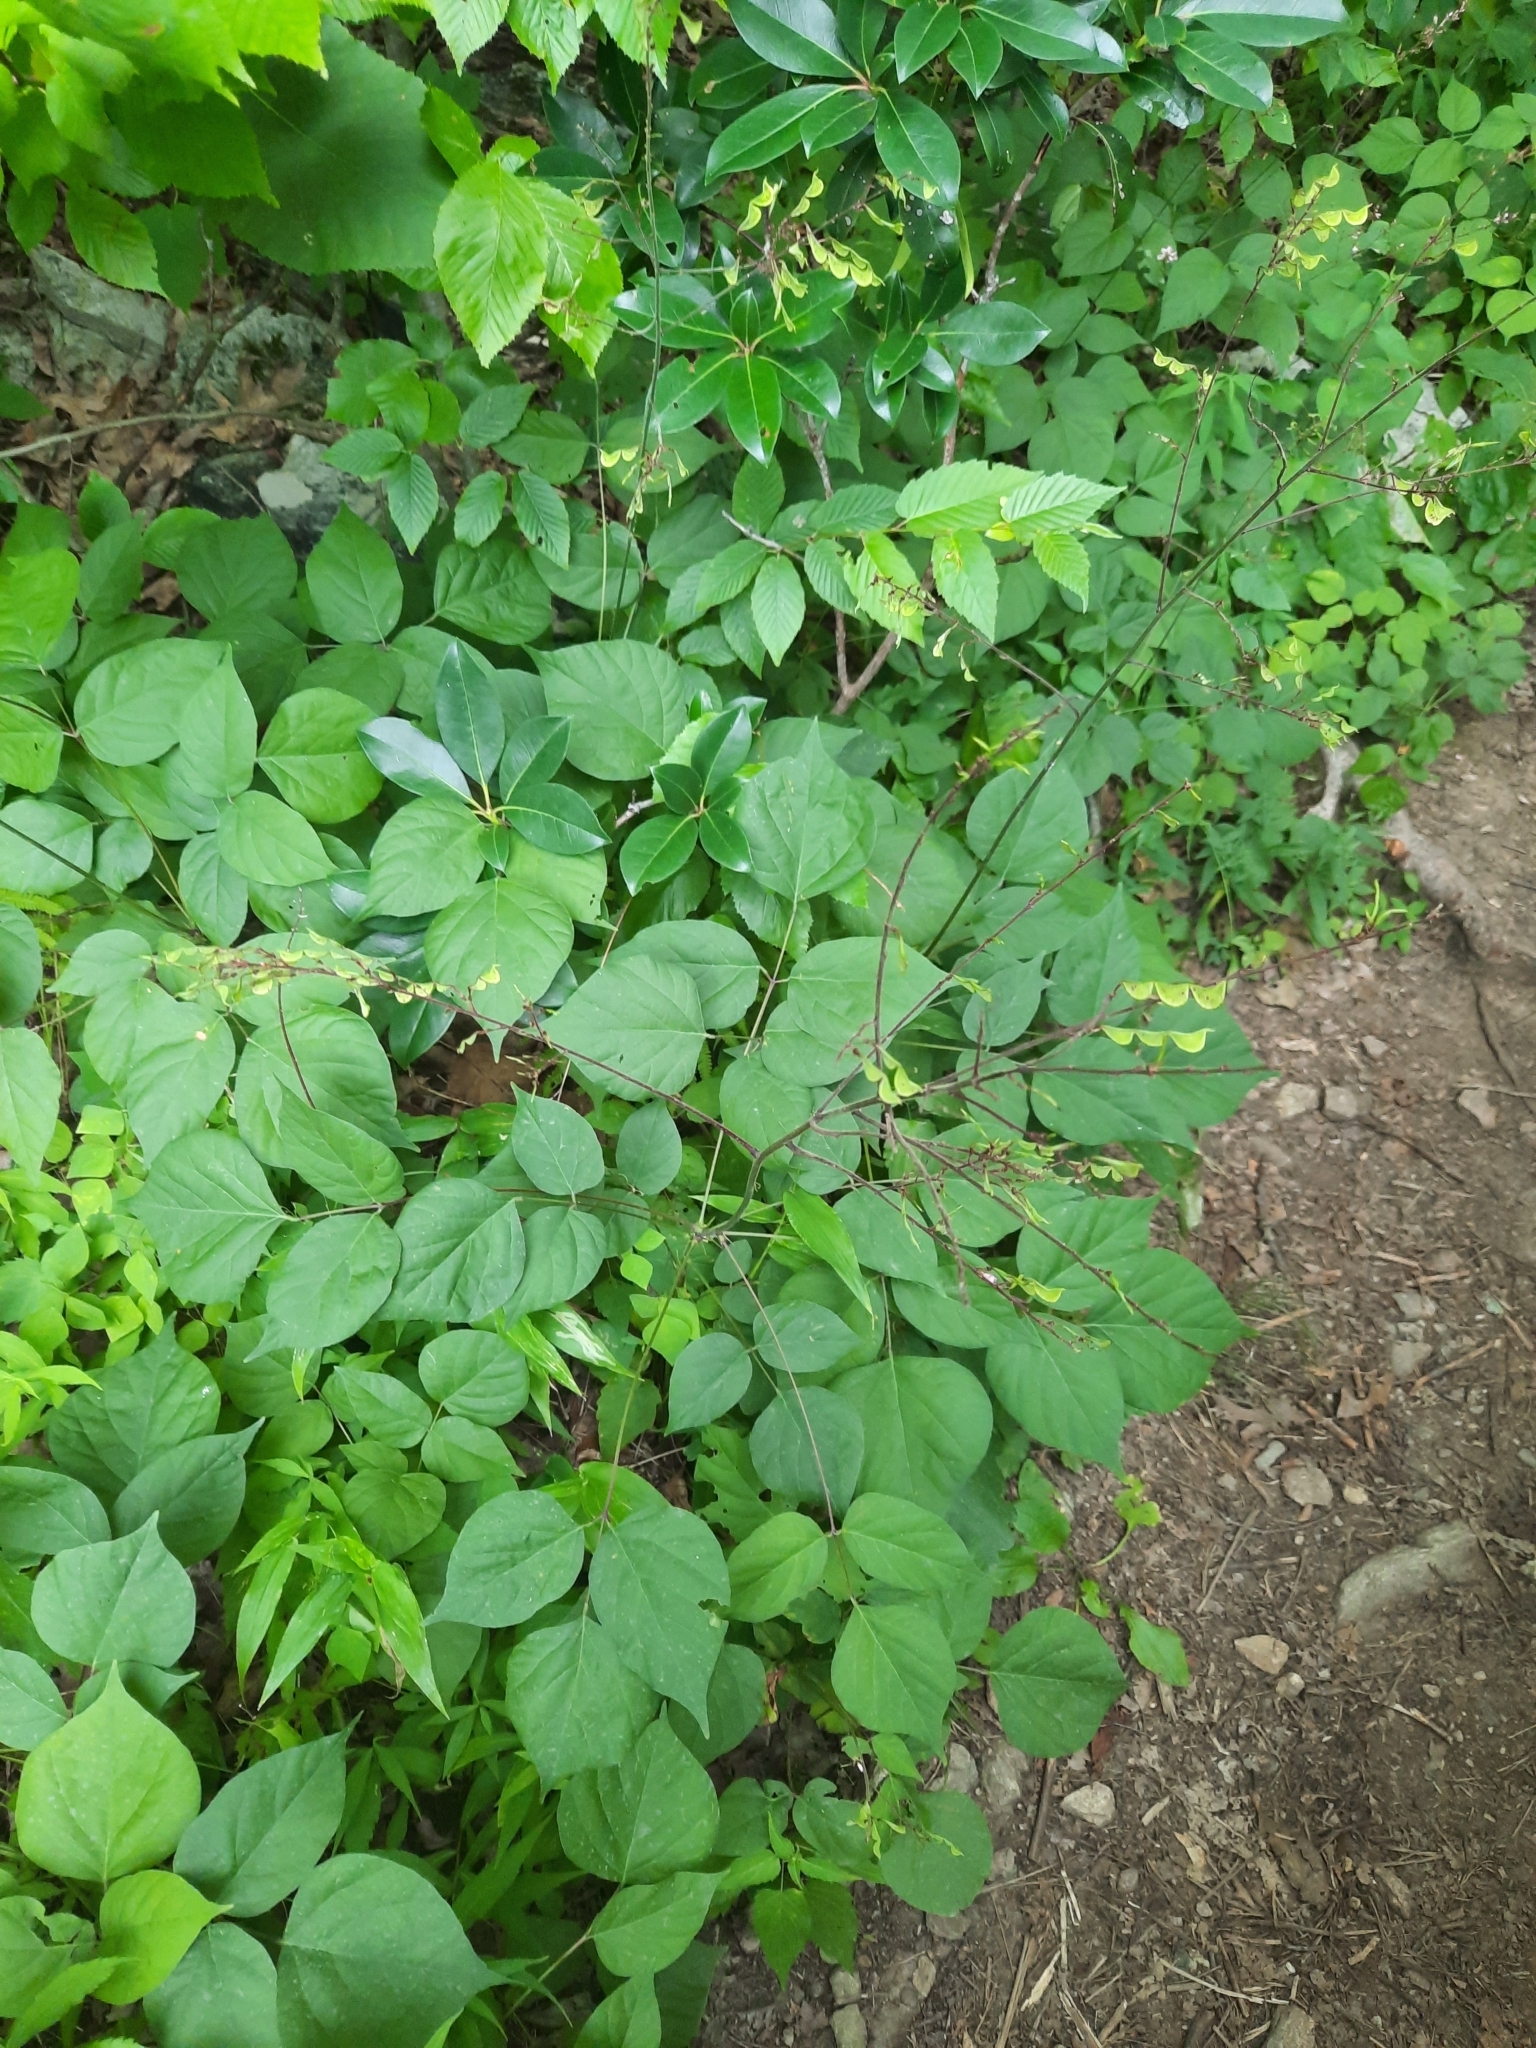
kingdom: Plantae
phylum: Tracheophyta
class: Magnoliopsida
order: Fabales
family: Fabaceae
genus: Hylodesmum
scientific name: Hylodesmum glutinosum
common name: Clustered-leaved tick-trefoil
